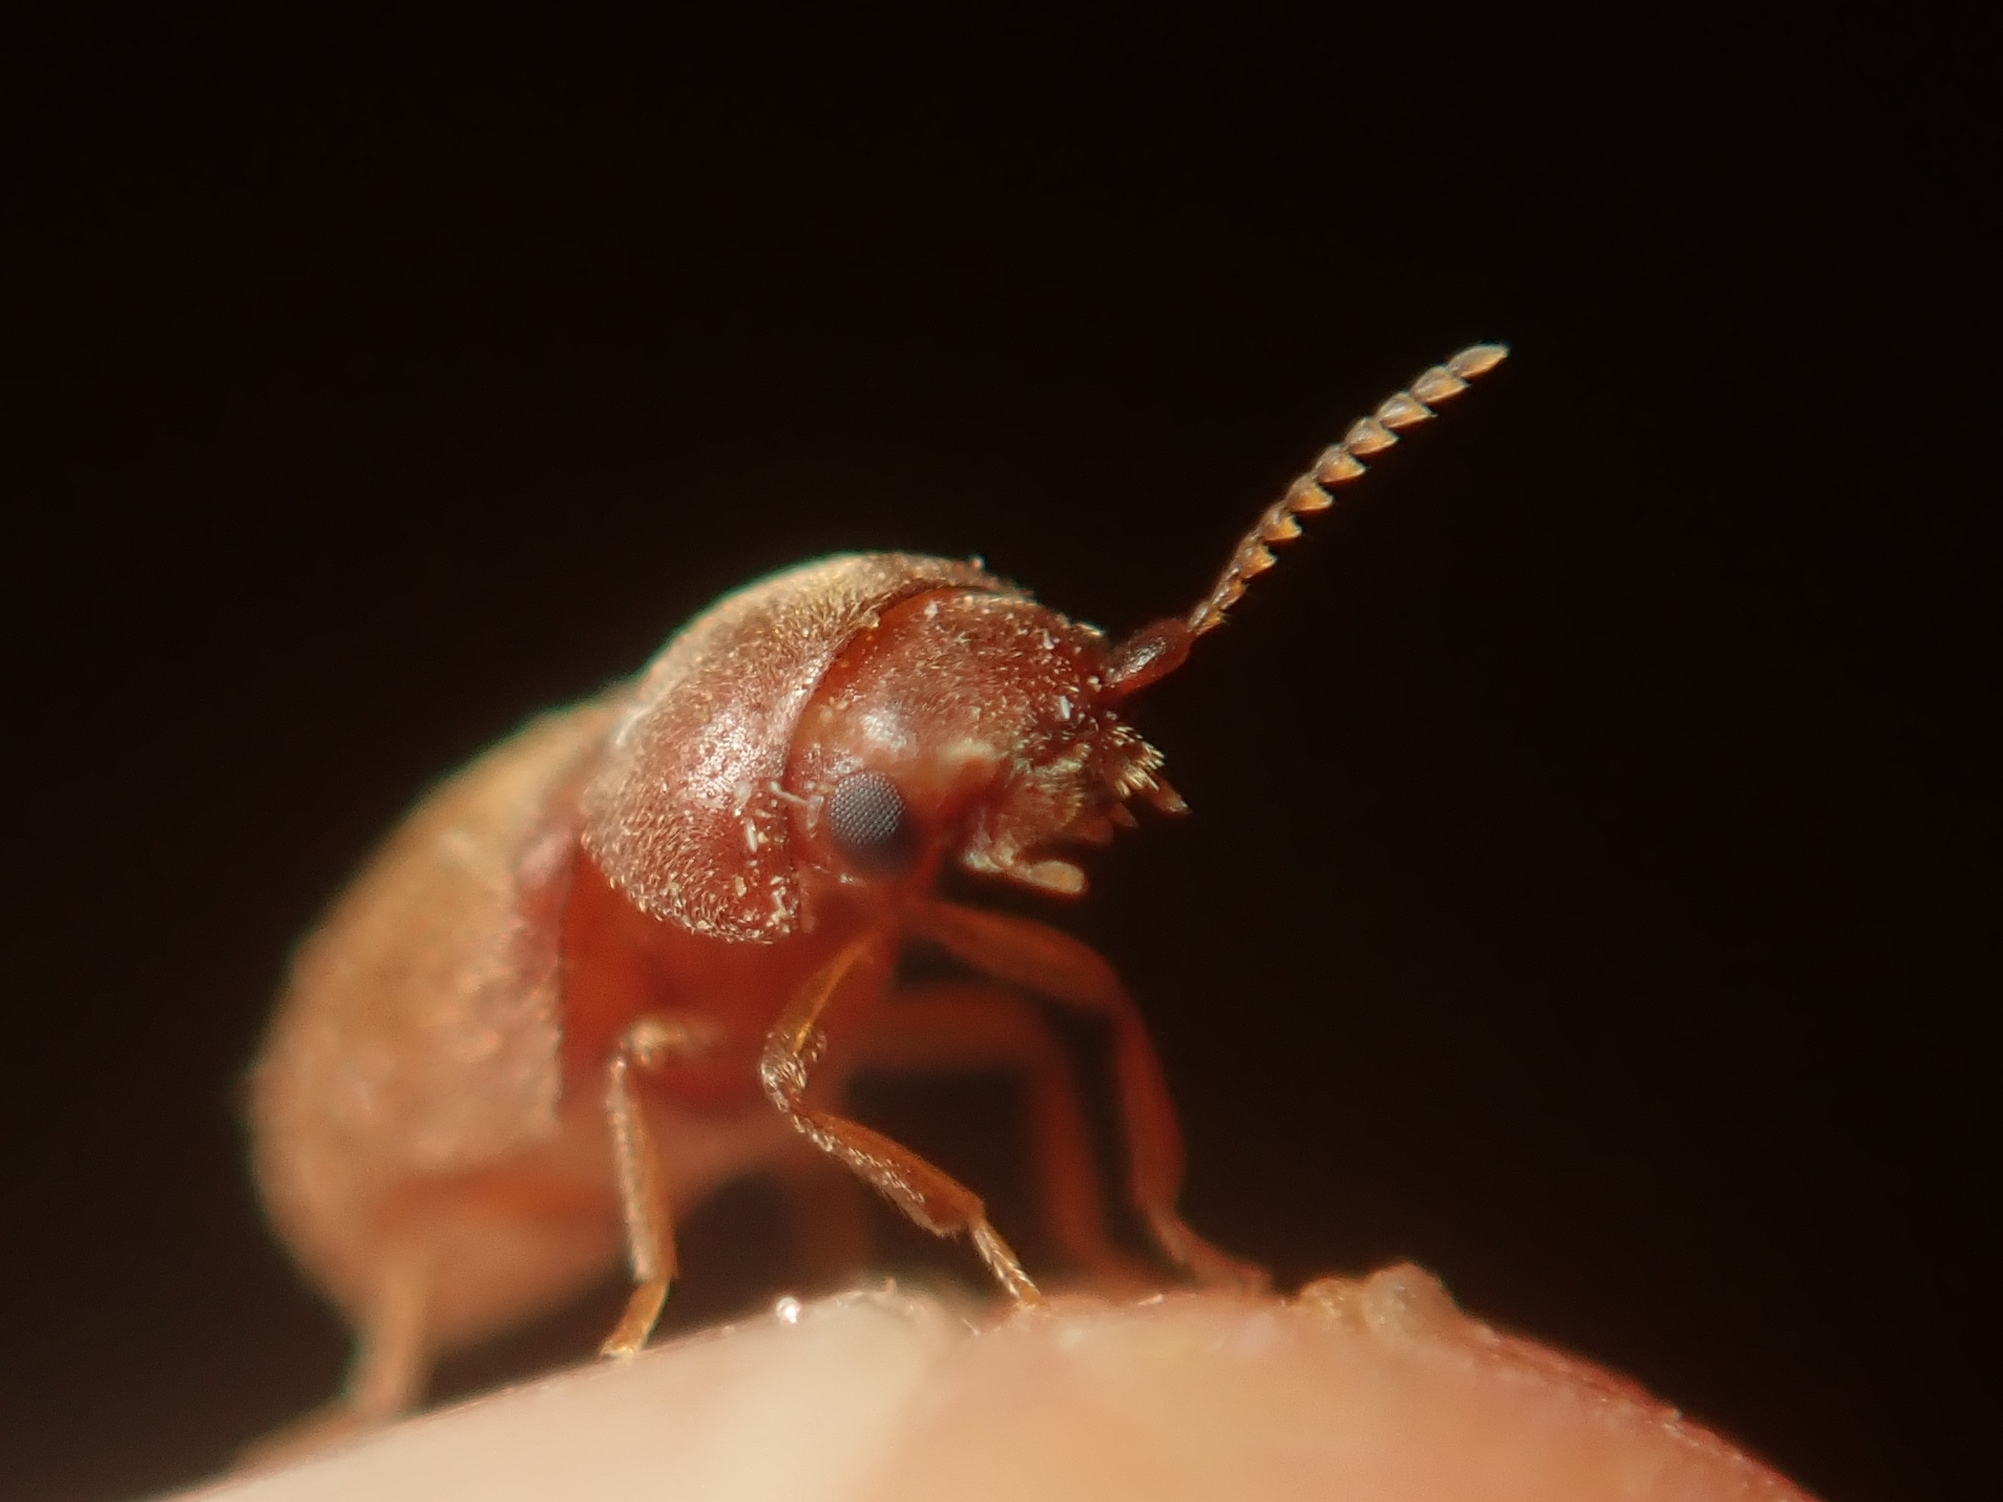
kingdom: Animalia
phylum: Arthropoda
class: Insecta
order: Coleoptera
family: Anobiidae
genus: Lasioderma
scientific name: Lasioderma serricorne
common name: Cigarette beetle
